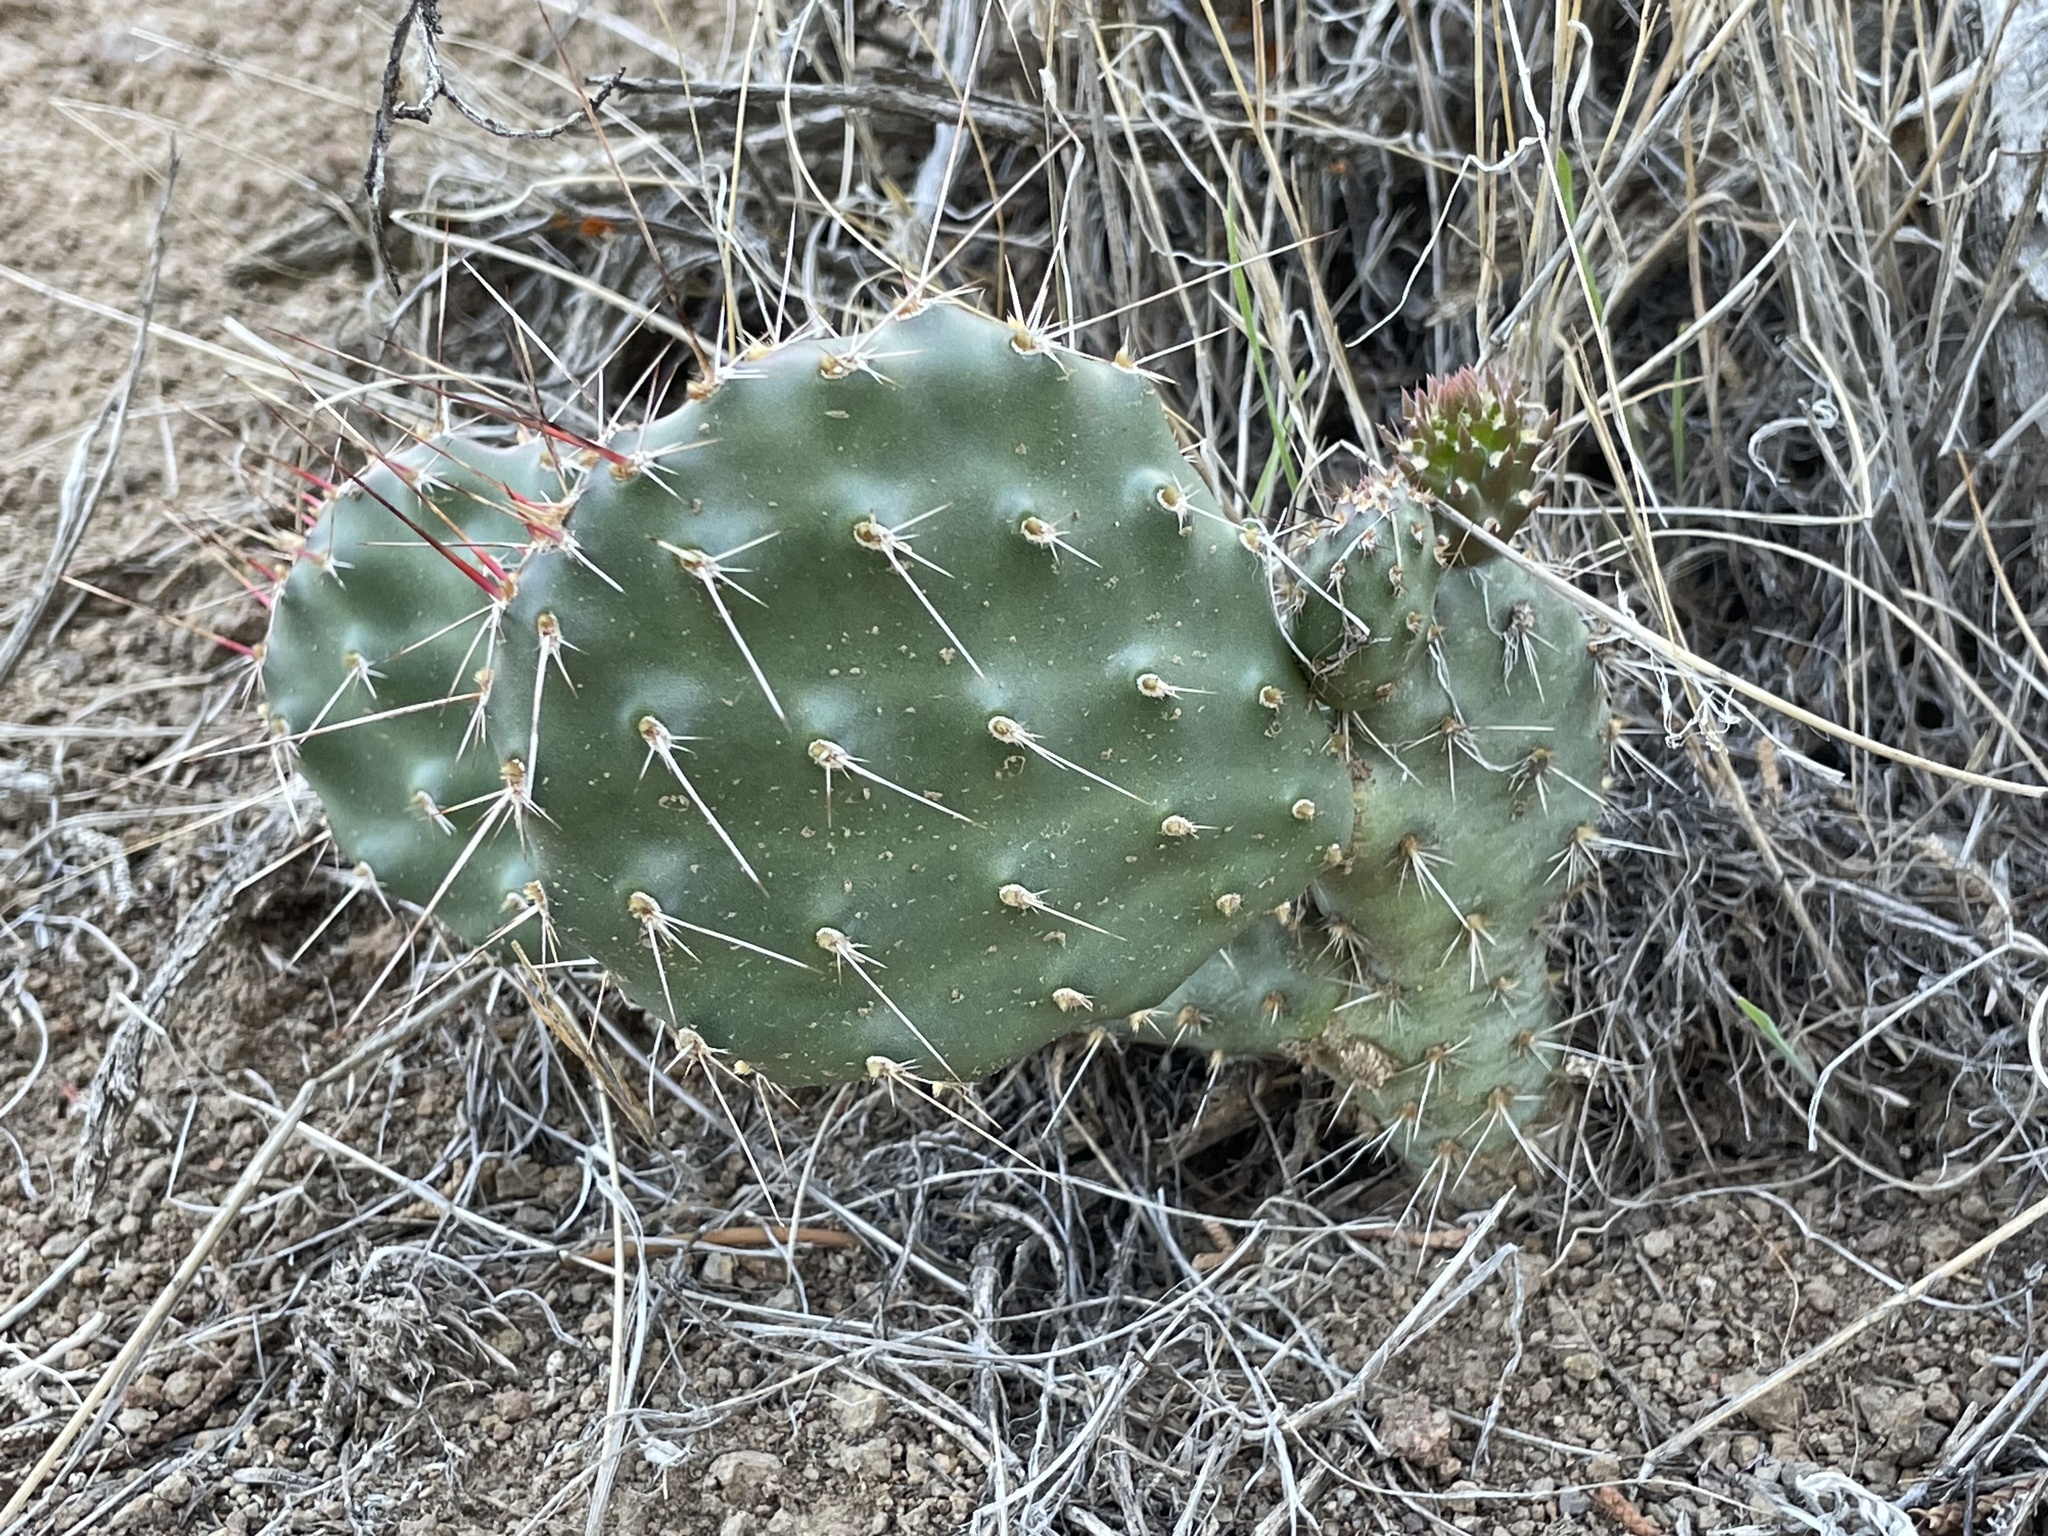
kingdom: Plantae
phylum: Tracheophyta
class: Magnoliopsida
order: Caryophyllales
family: Cactaceae
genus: Opuntia
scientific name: Opuntia polyacantha
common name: Plains prickly-pear
